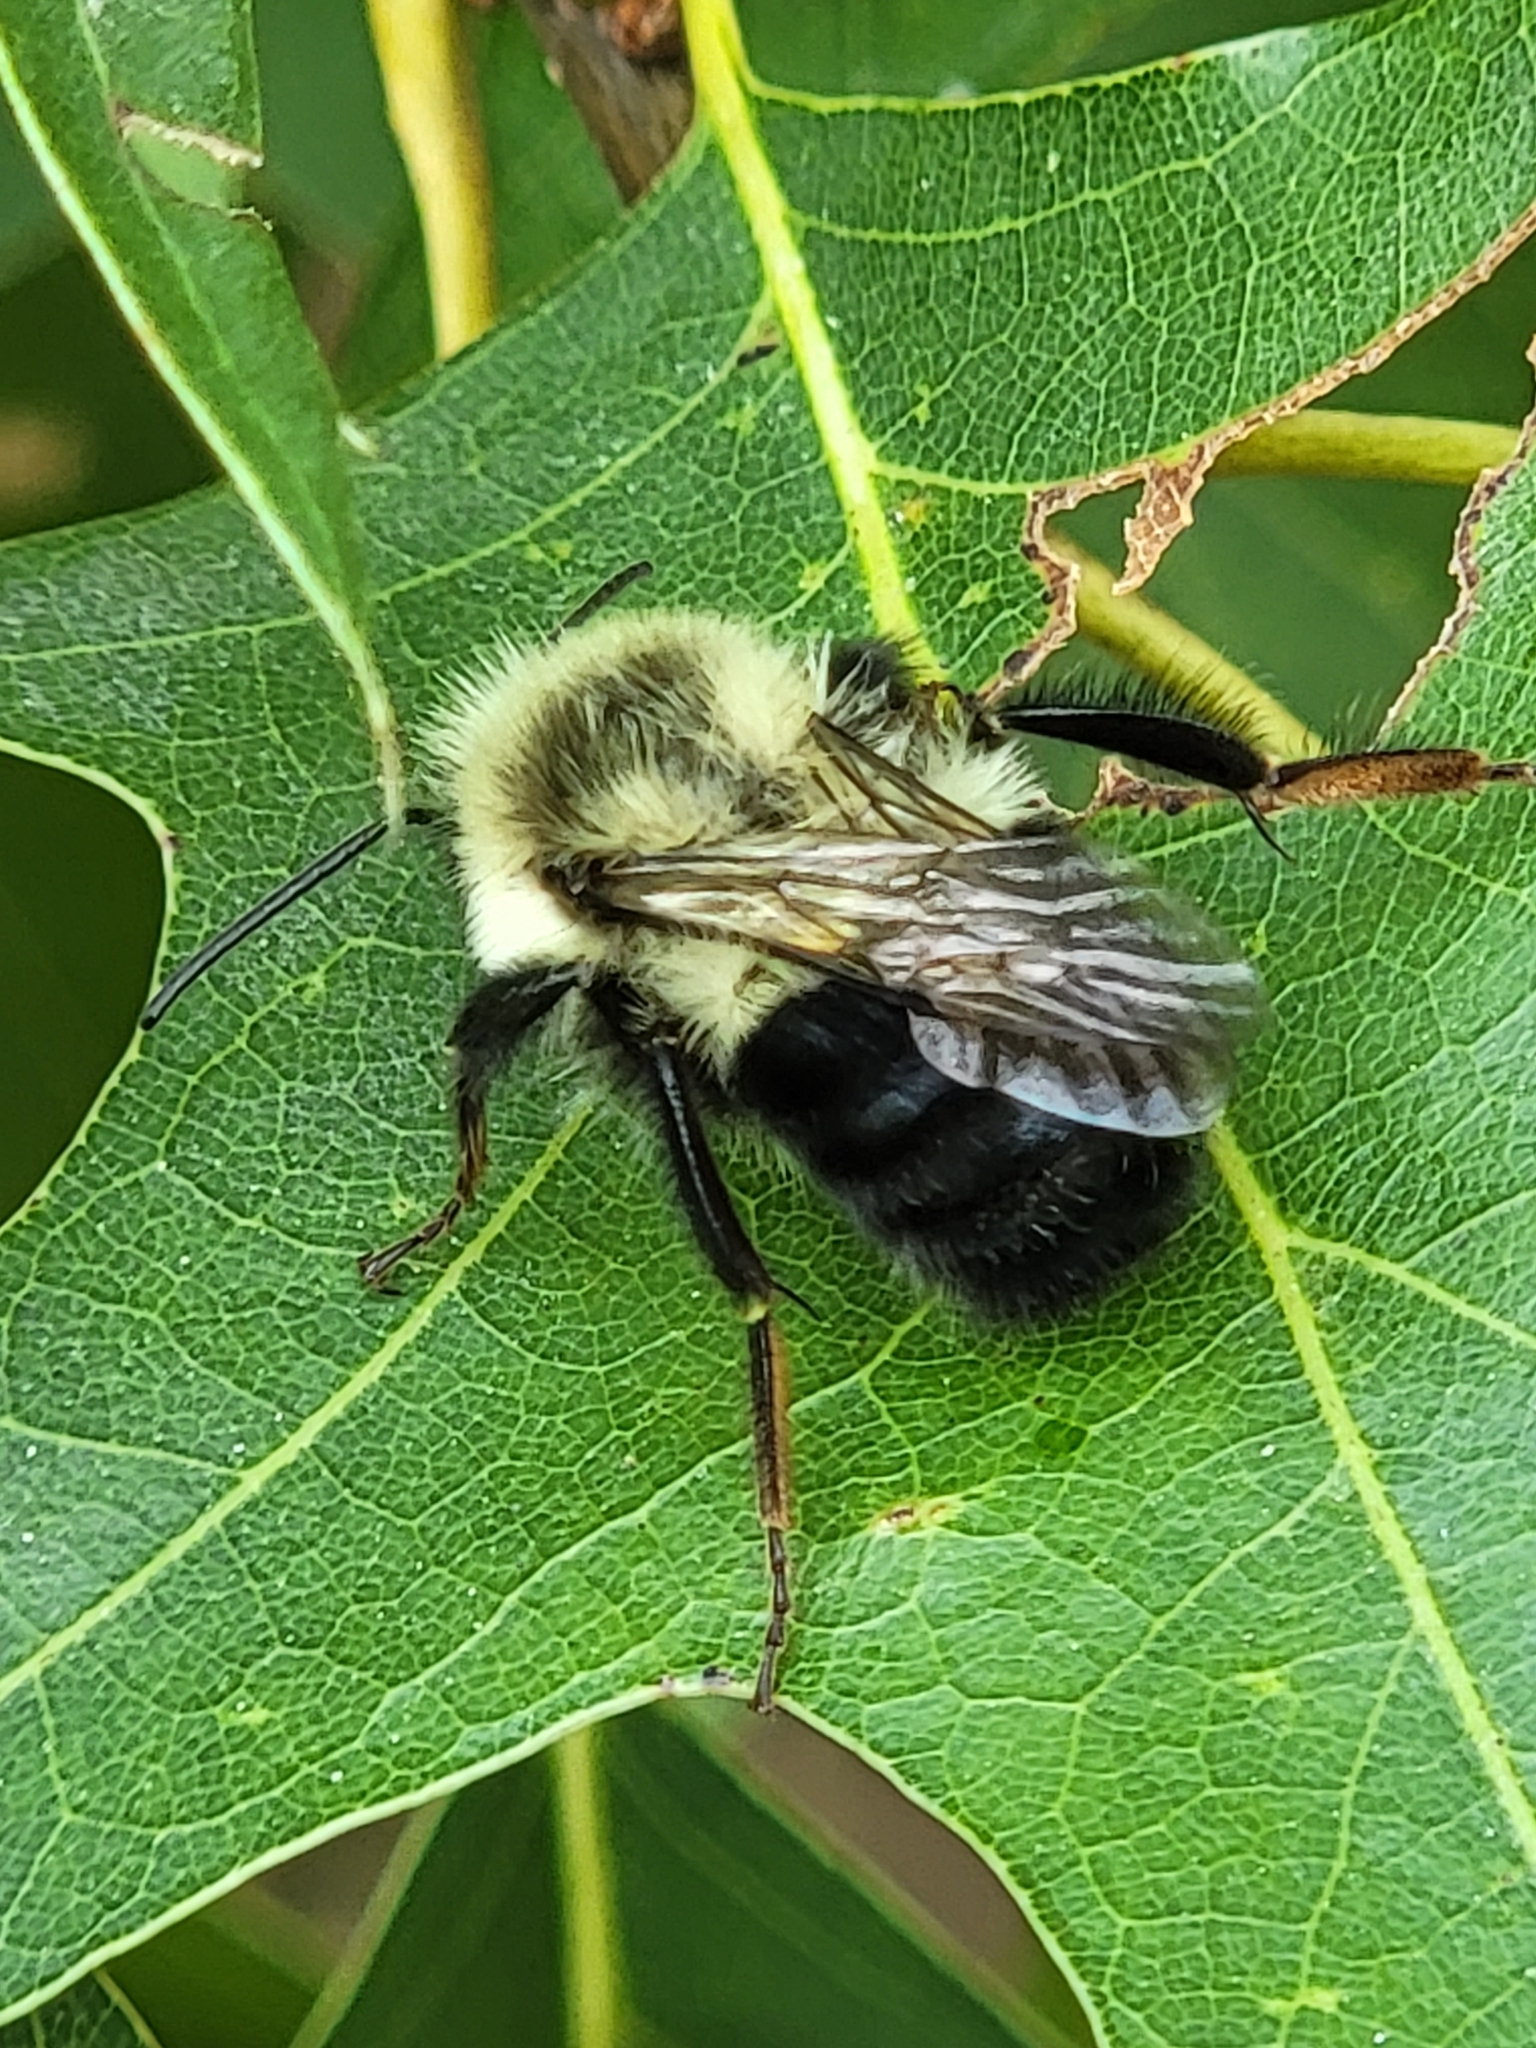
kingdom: Animalia
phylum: Arthropoda
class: Insecta
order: Hymenoptera
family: Apidae
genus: Bombus
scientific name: Bombus impatiens
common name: Common eastern bumble bee
